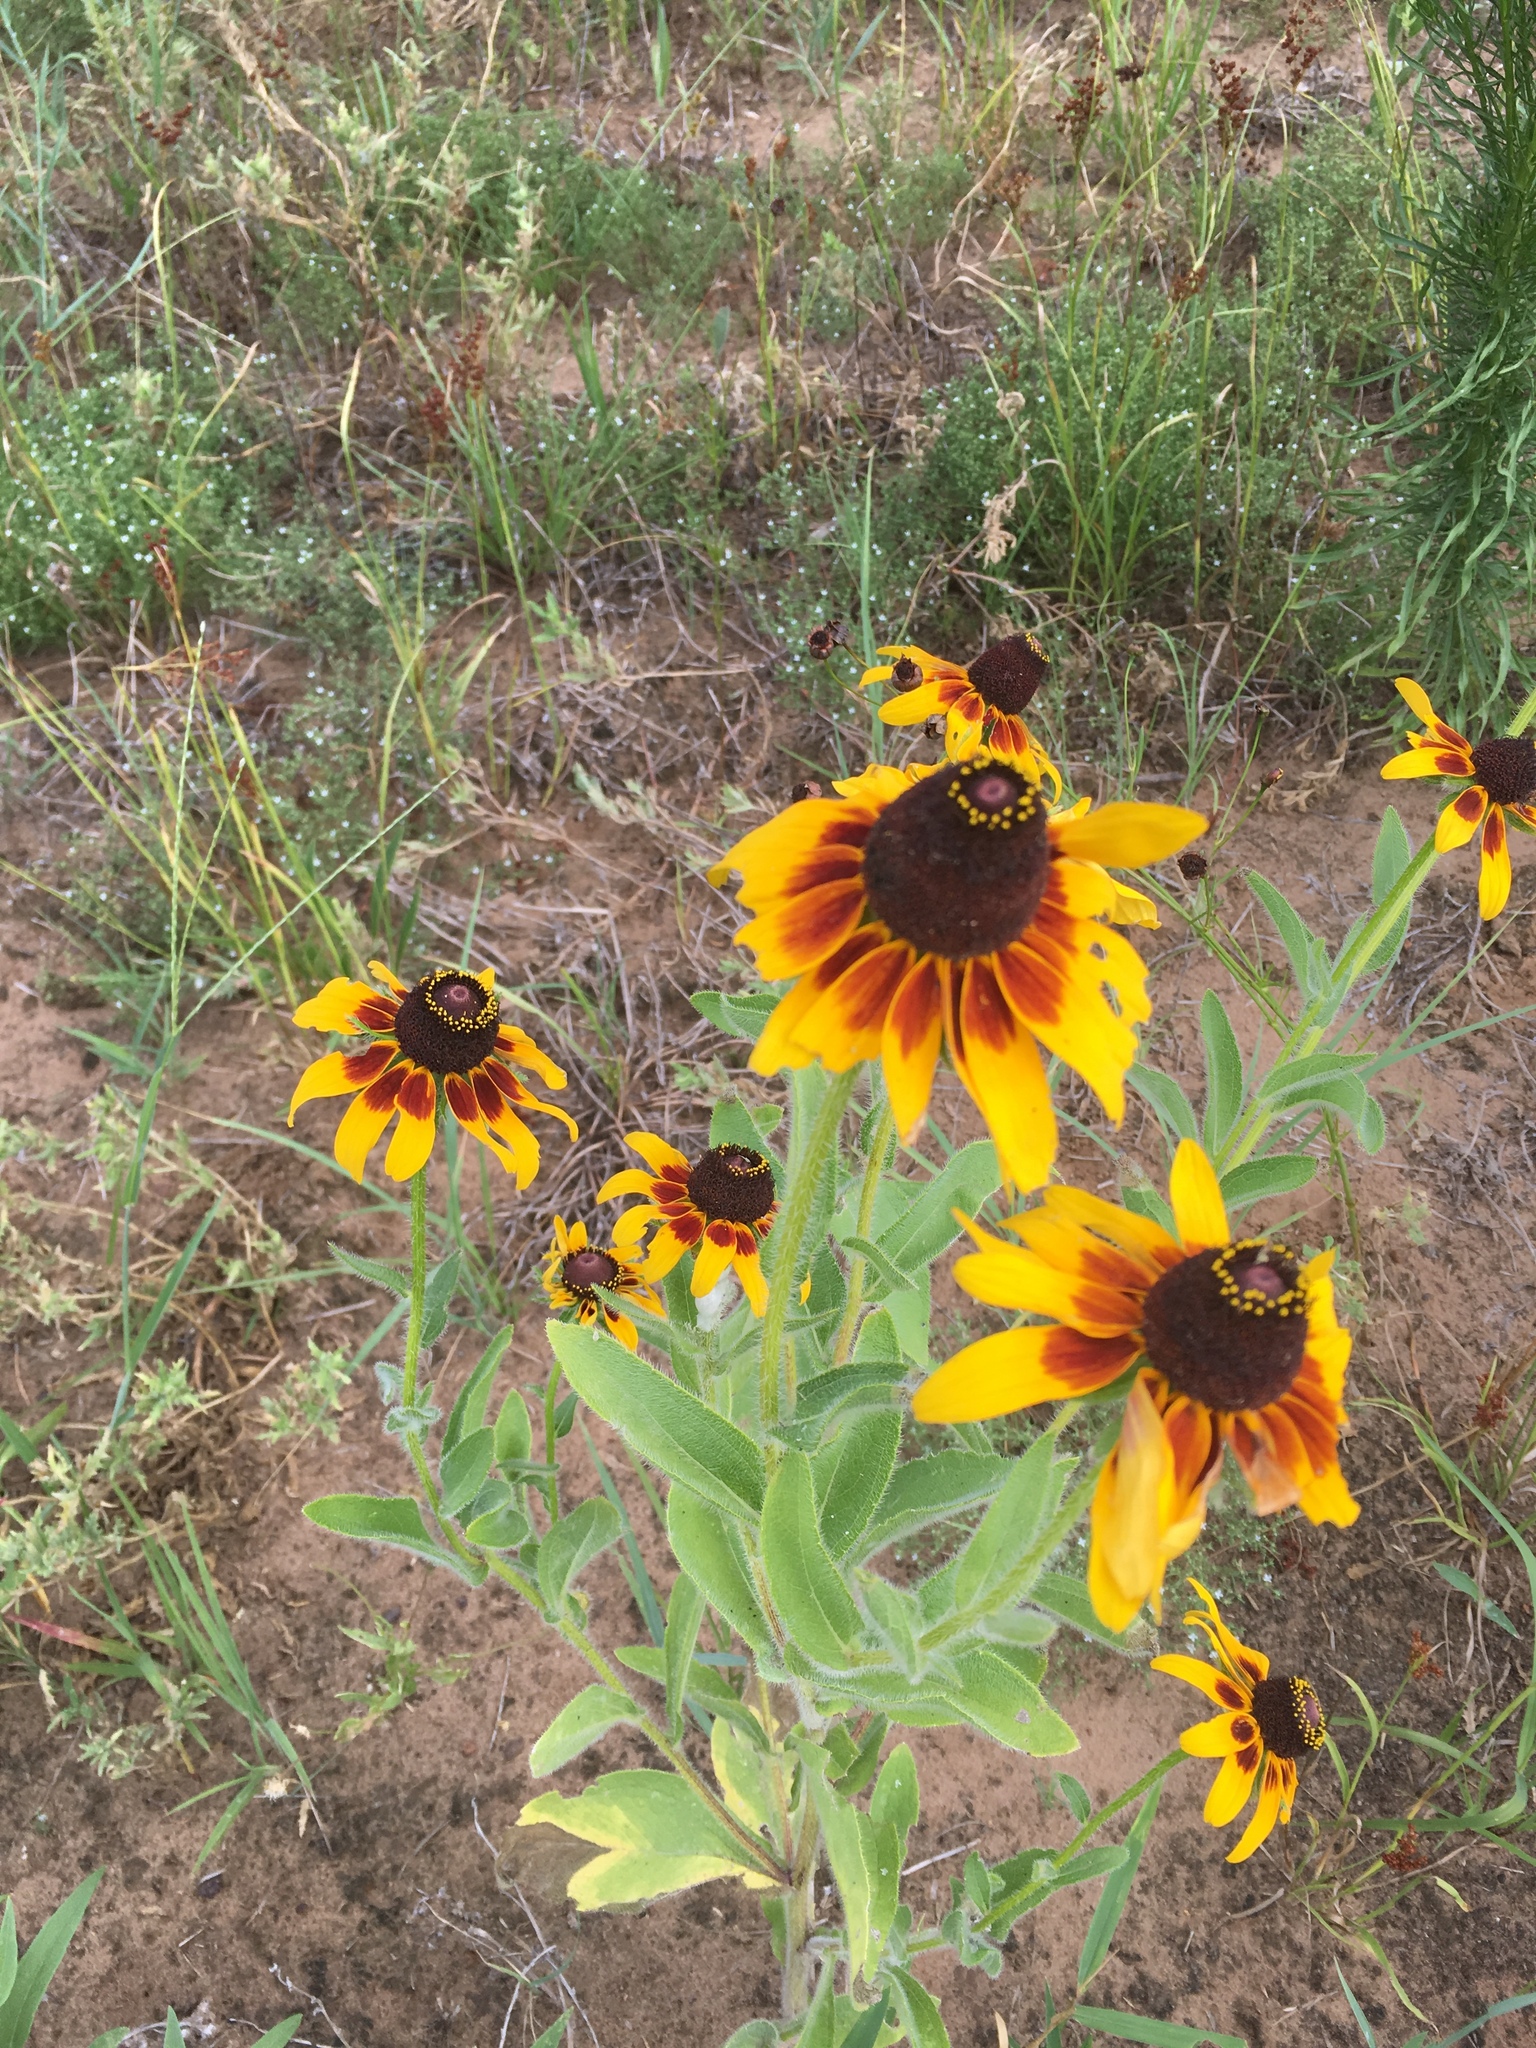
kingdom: Plantae
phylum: Tracheophyta
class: Magnoliopsida
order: Asterales
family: Asteraceae
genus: Rudbeckia
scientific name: Rudbeckia hirta
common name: Black-eyed-susan
